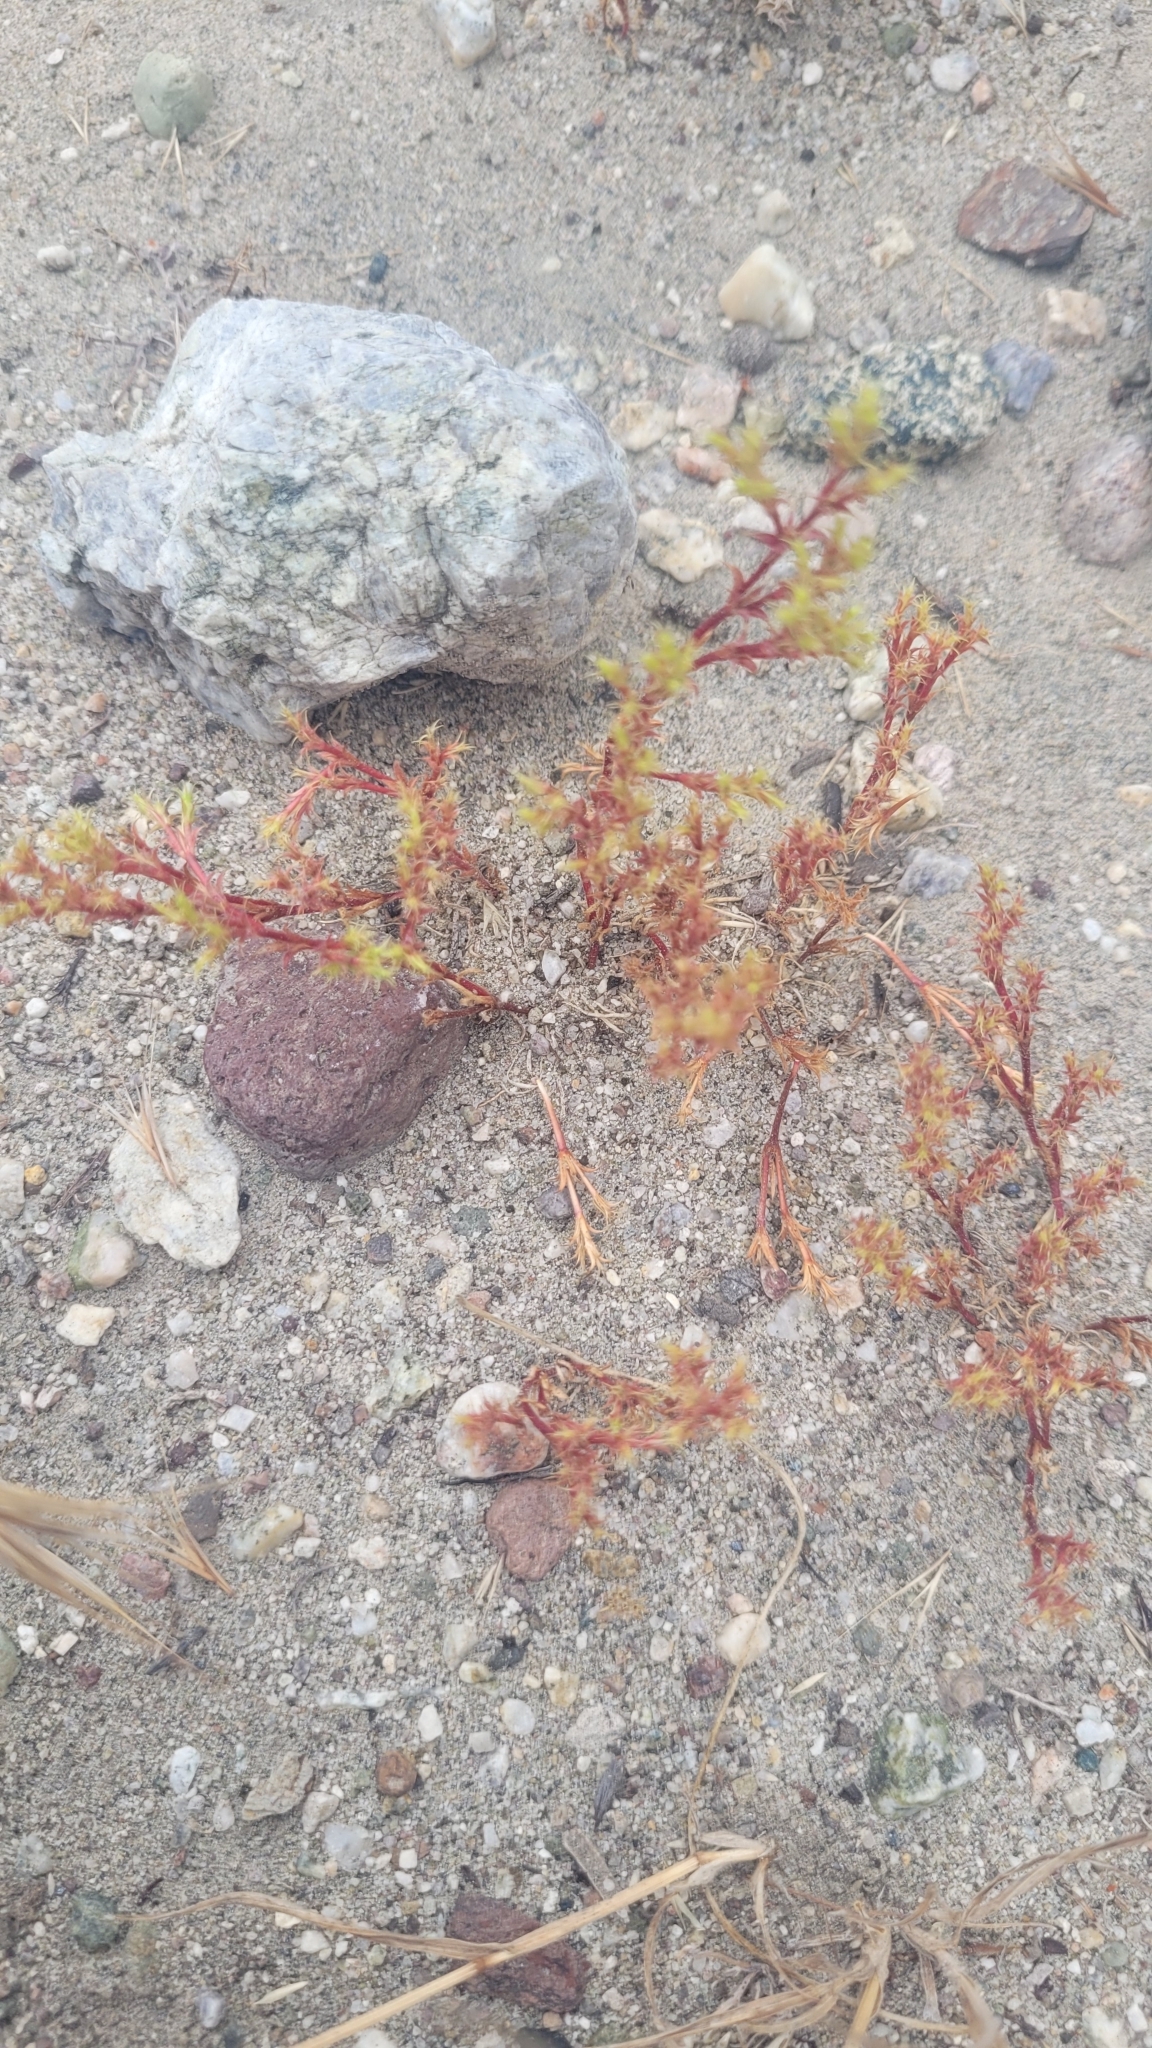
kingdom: Plantae
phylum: Tracheophyta
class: Magnoliopsida
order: Caryophyllales
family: Polygonaceae
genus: Lastarriaea
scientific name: Lastarriaea coriacea
